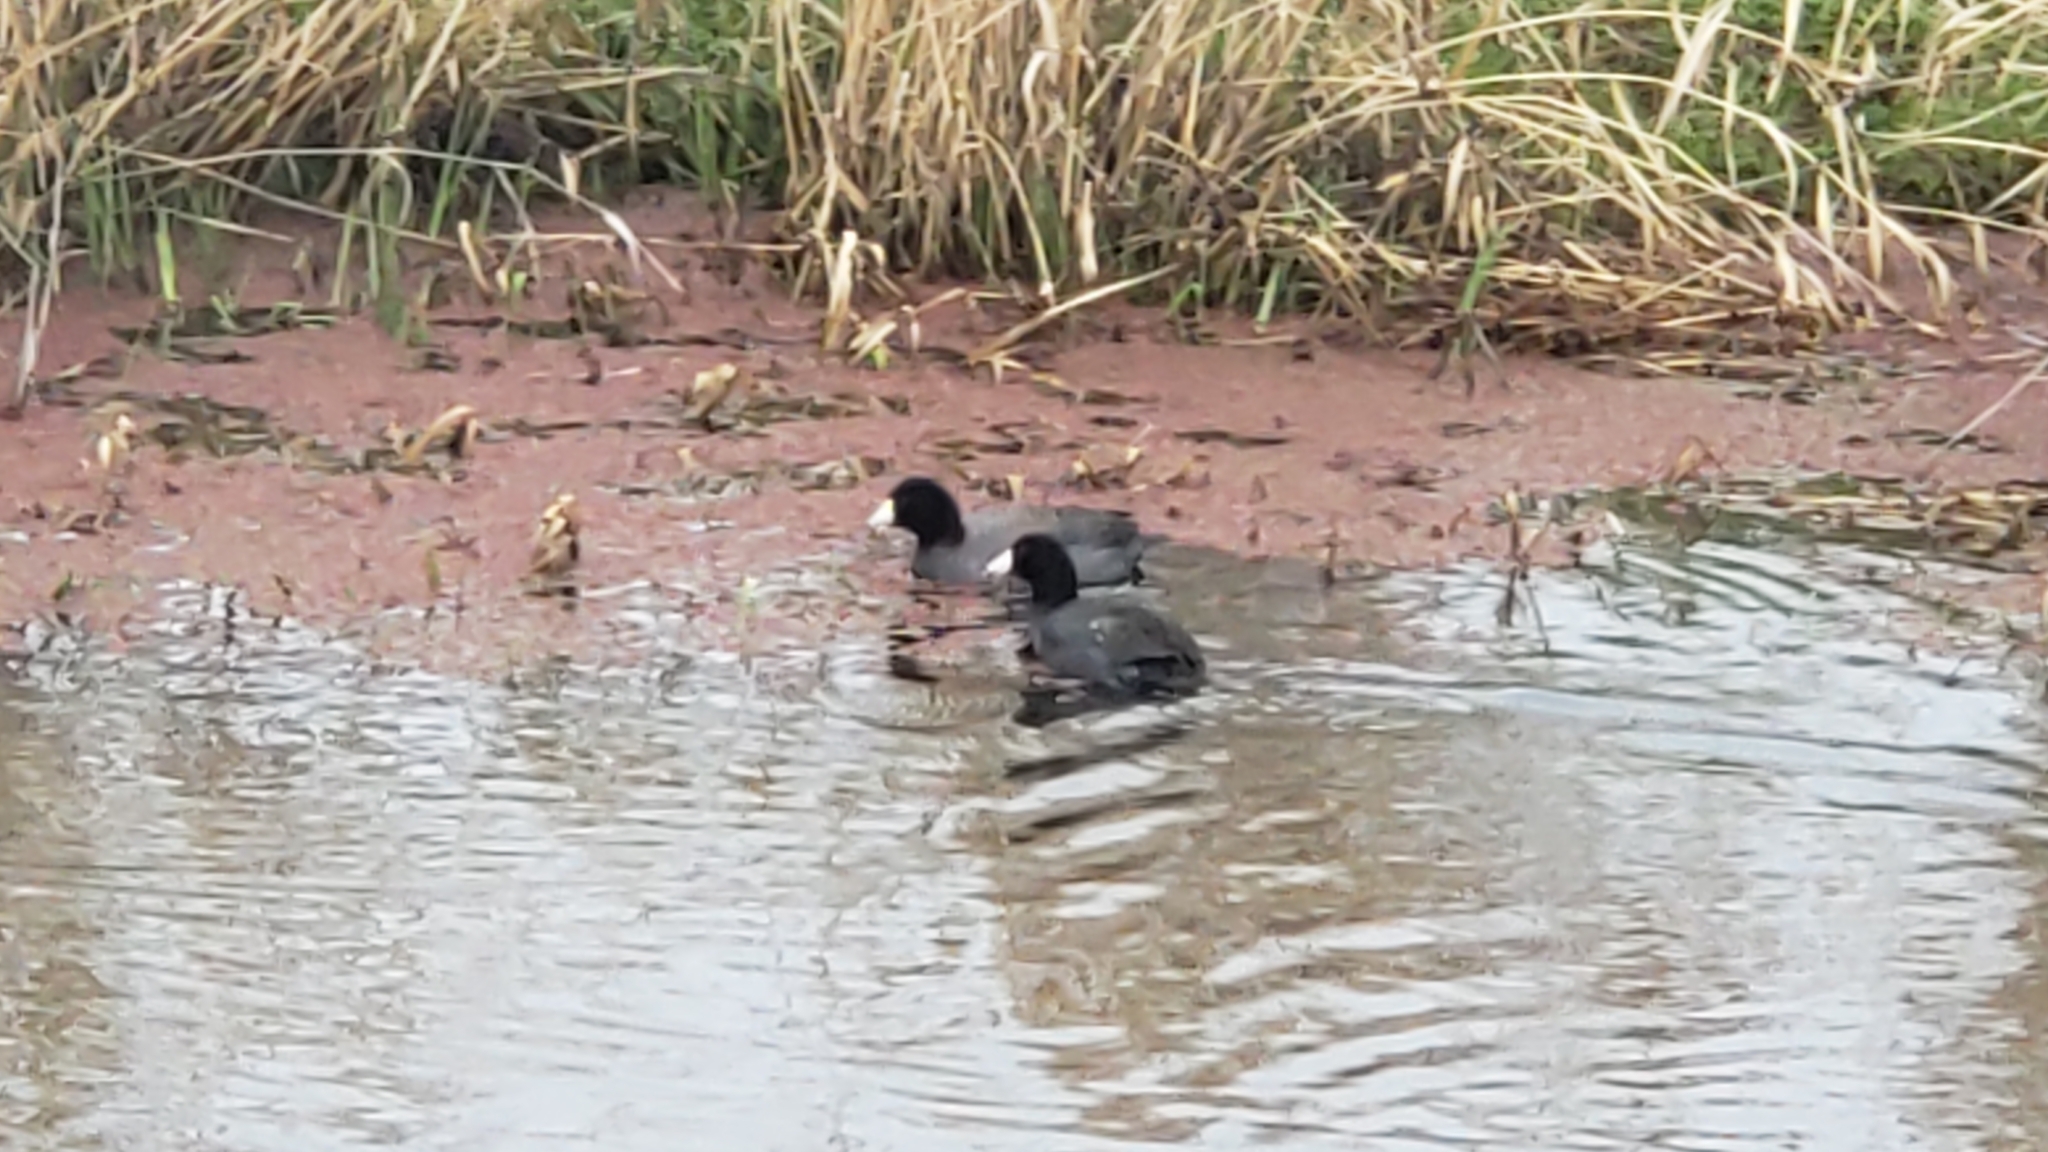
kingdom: Animalia
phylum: Chordata
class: Aves
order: Gruiformes
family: Rallidae
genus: Fulica
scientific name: Fulica americana
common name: American coot
